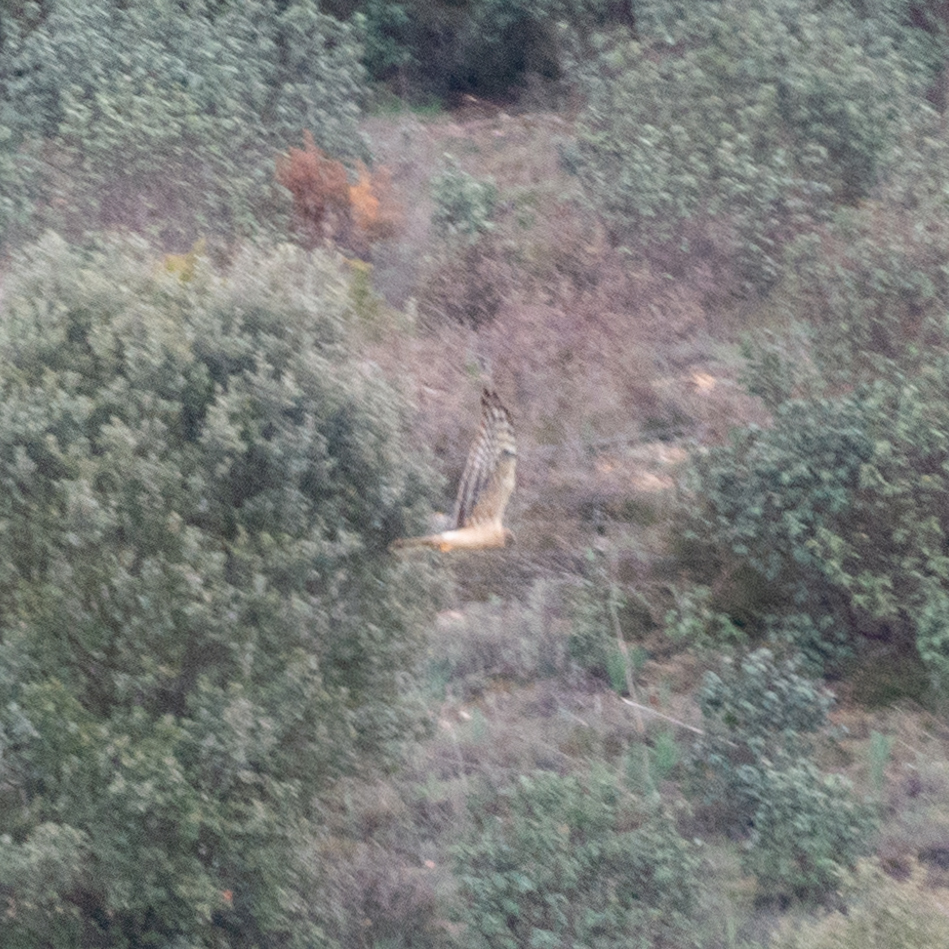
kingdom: Animalia
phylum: Chordata
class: Aves
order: Accipitriformes
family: Accipitridae
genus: Circus
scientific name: Circus pygargus
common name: Montagu's harrier
